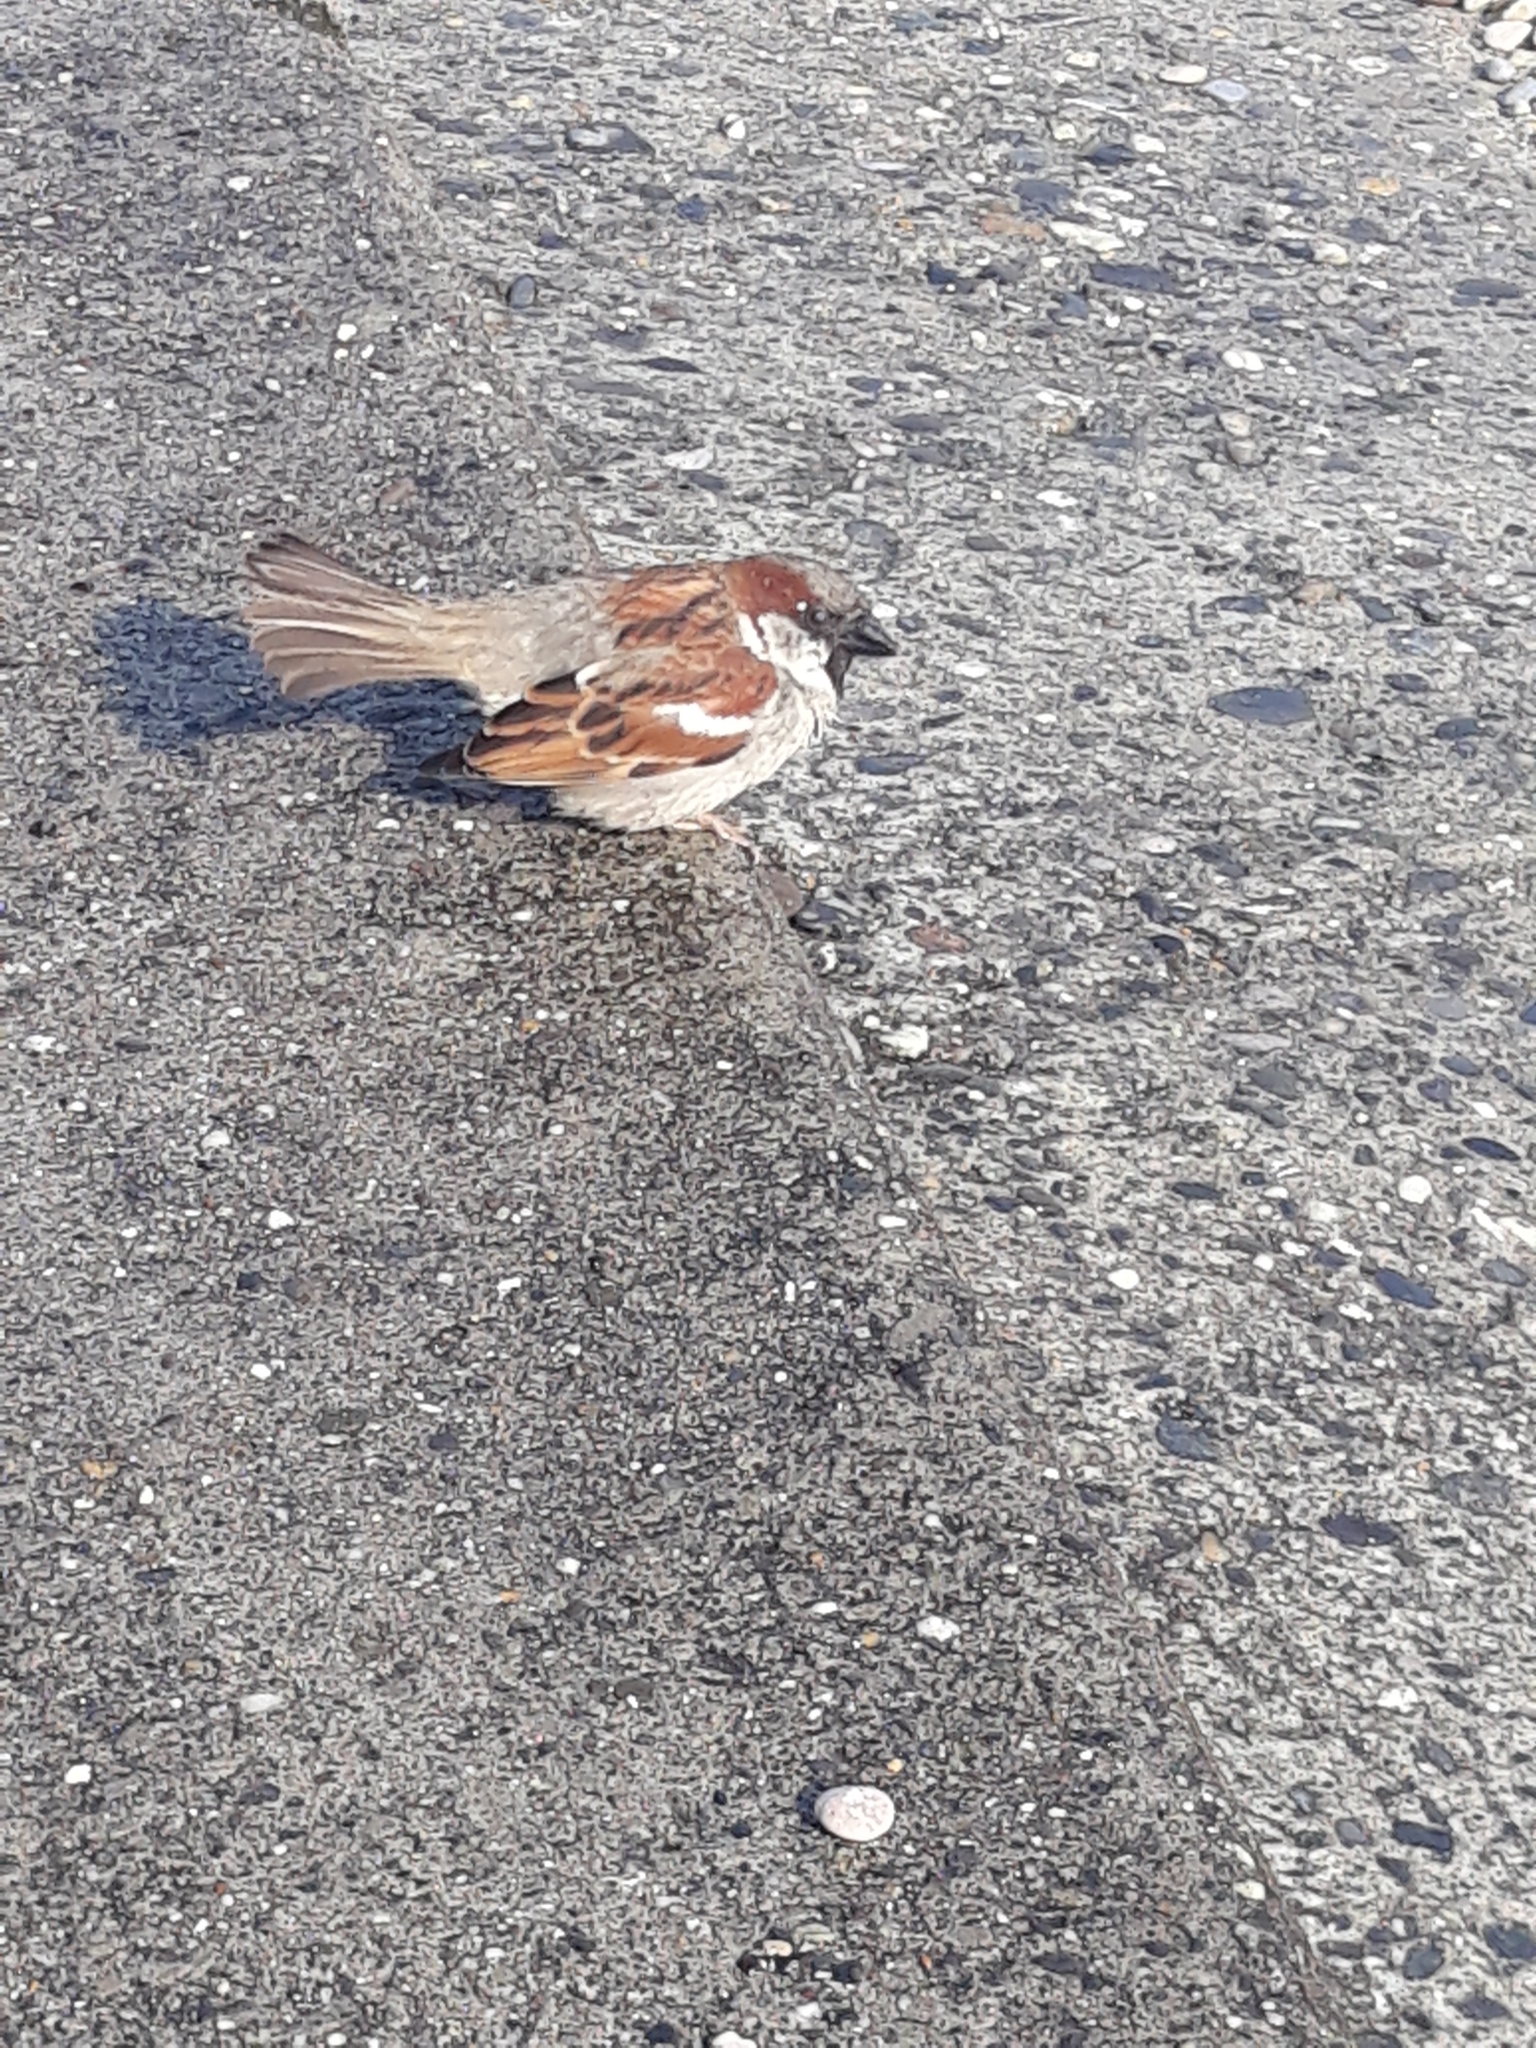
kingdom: Animalia
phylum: Chordata
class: Aves
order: Passeriformes
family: Passeridae
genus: Passer
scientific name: Passer domesticus
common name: House sparrow
